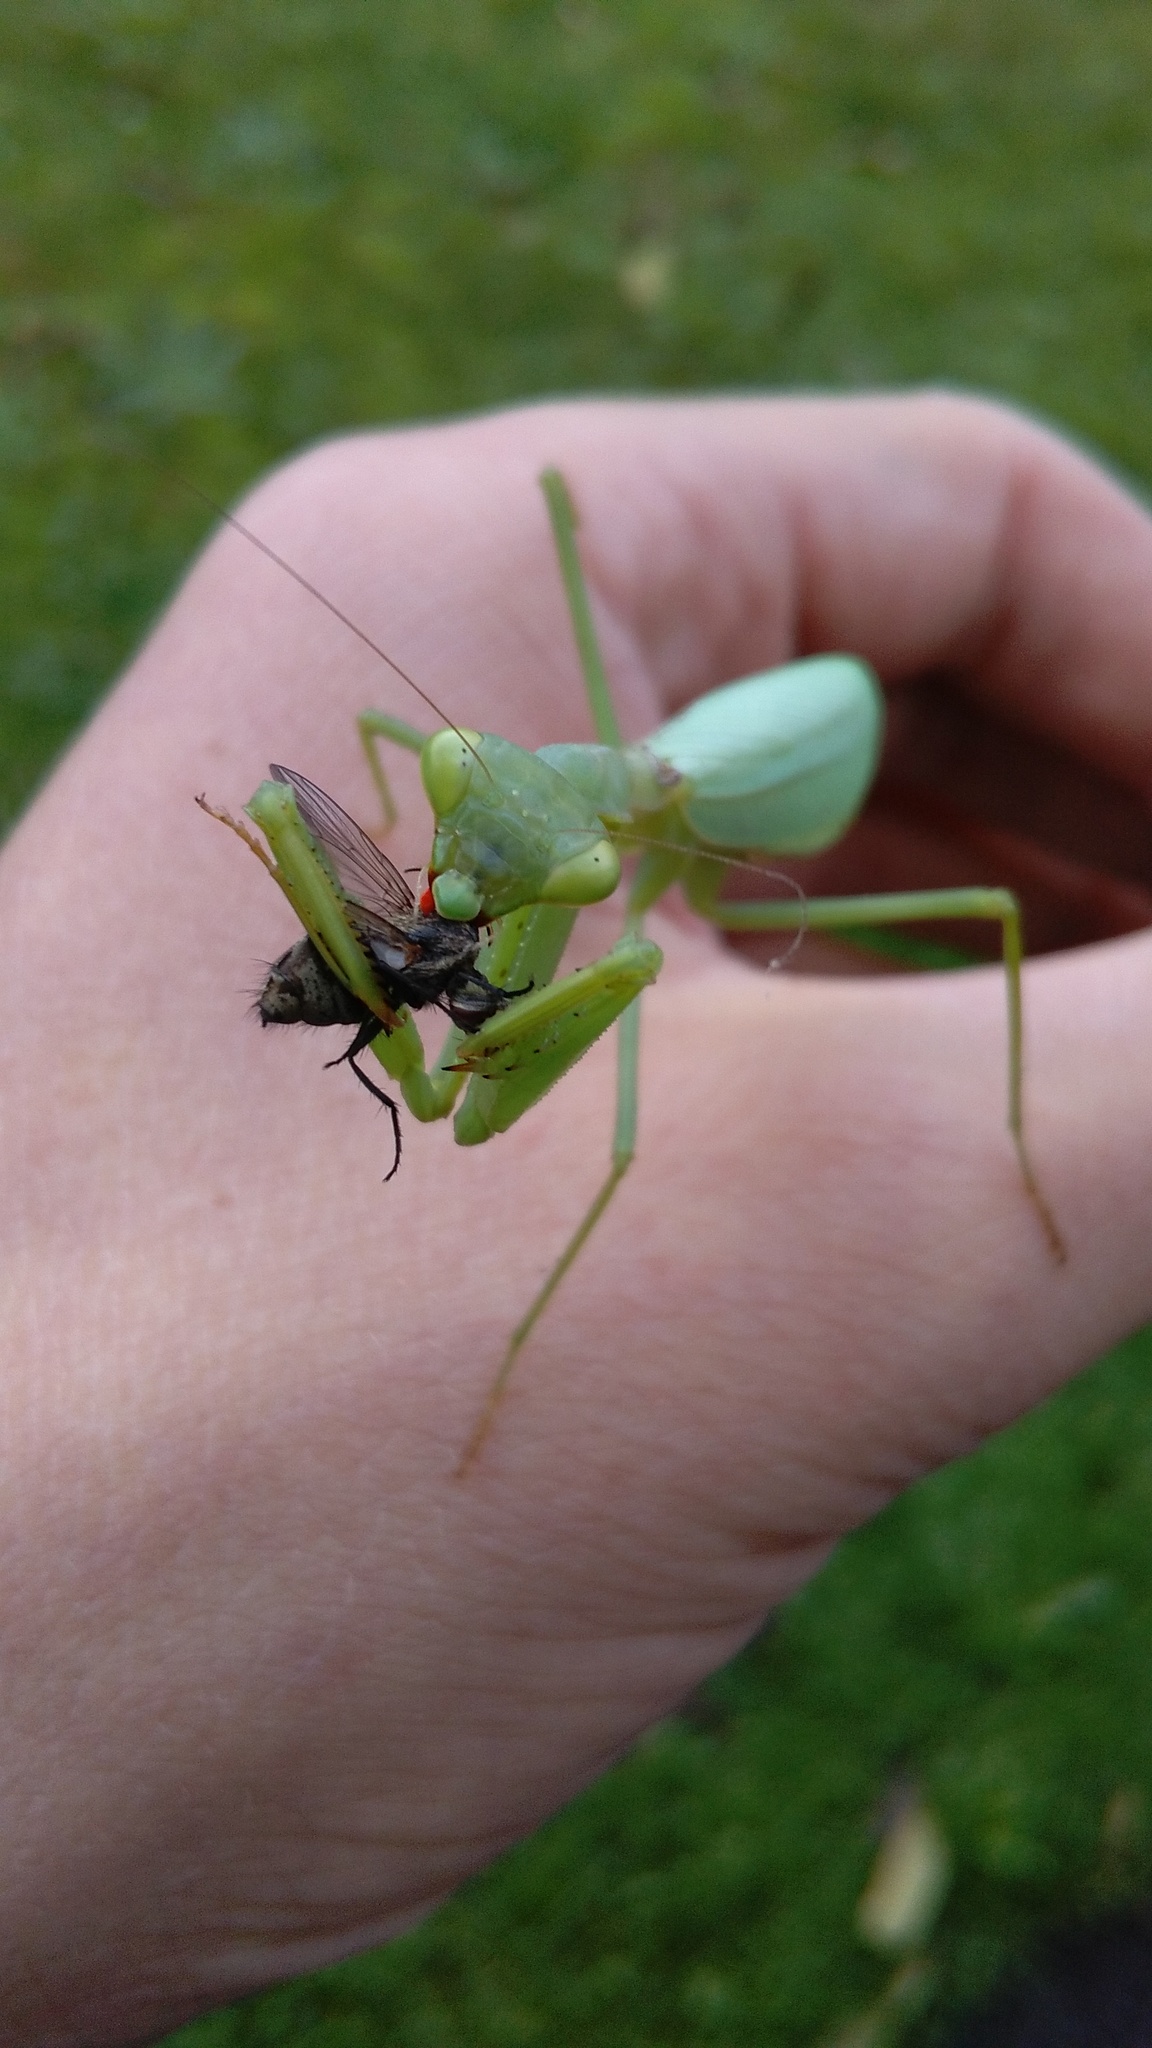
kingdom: Animalia
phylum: Arthropoda
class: Insecta
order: Mantodea
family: Miomantidae
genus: Miomantis
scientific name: Miomantis caffra
